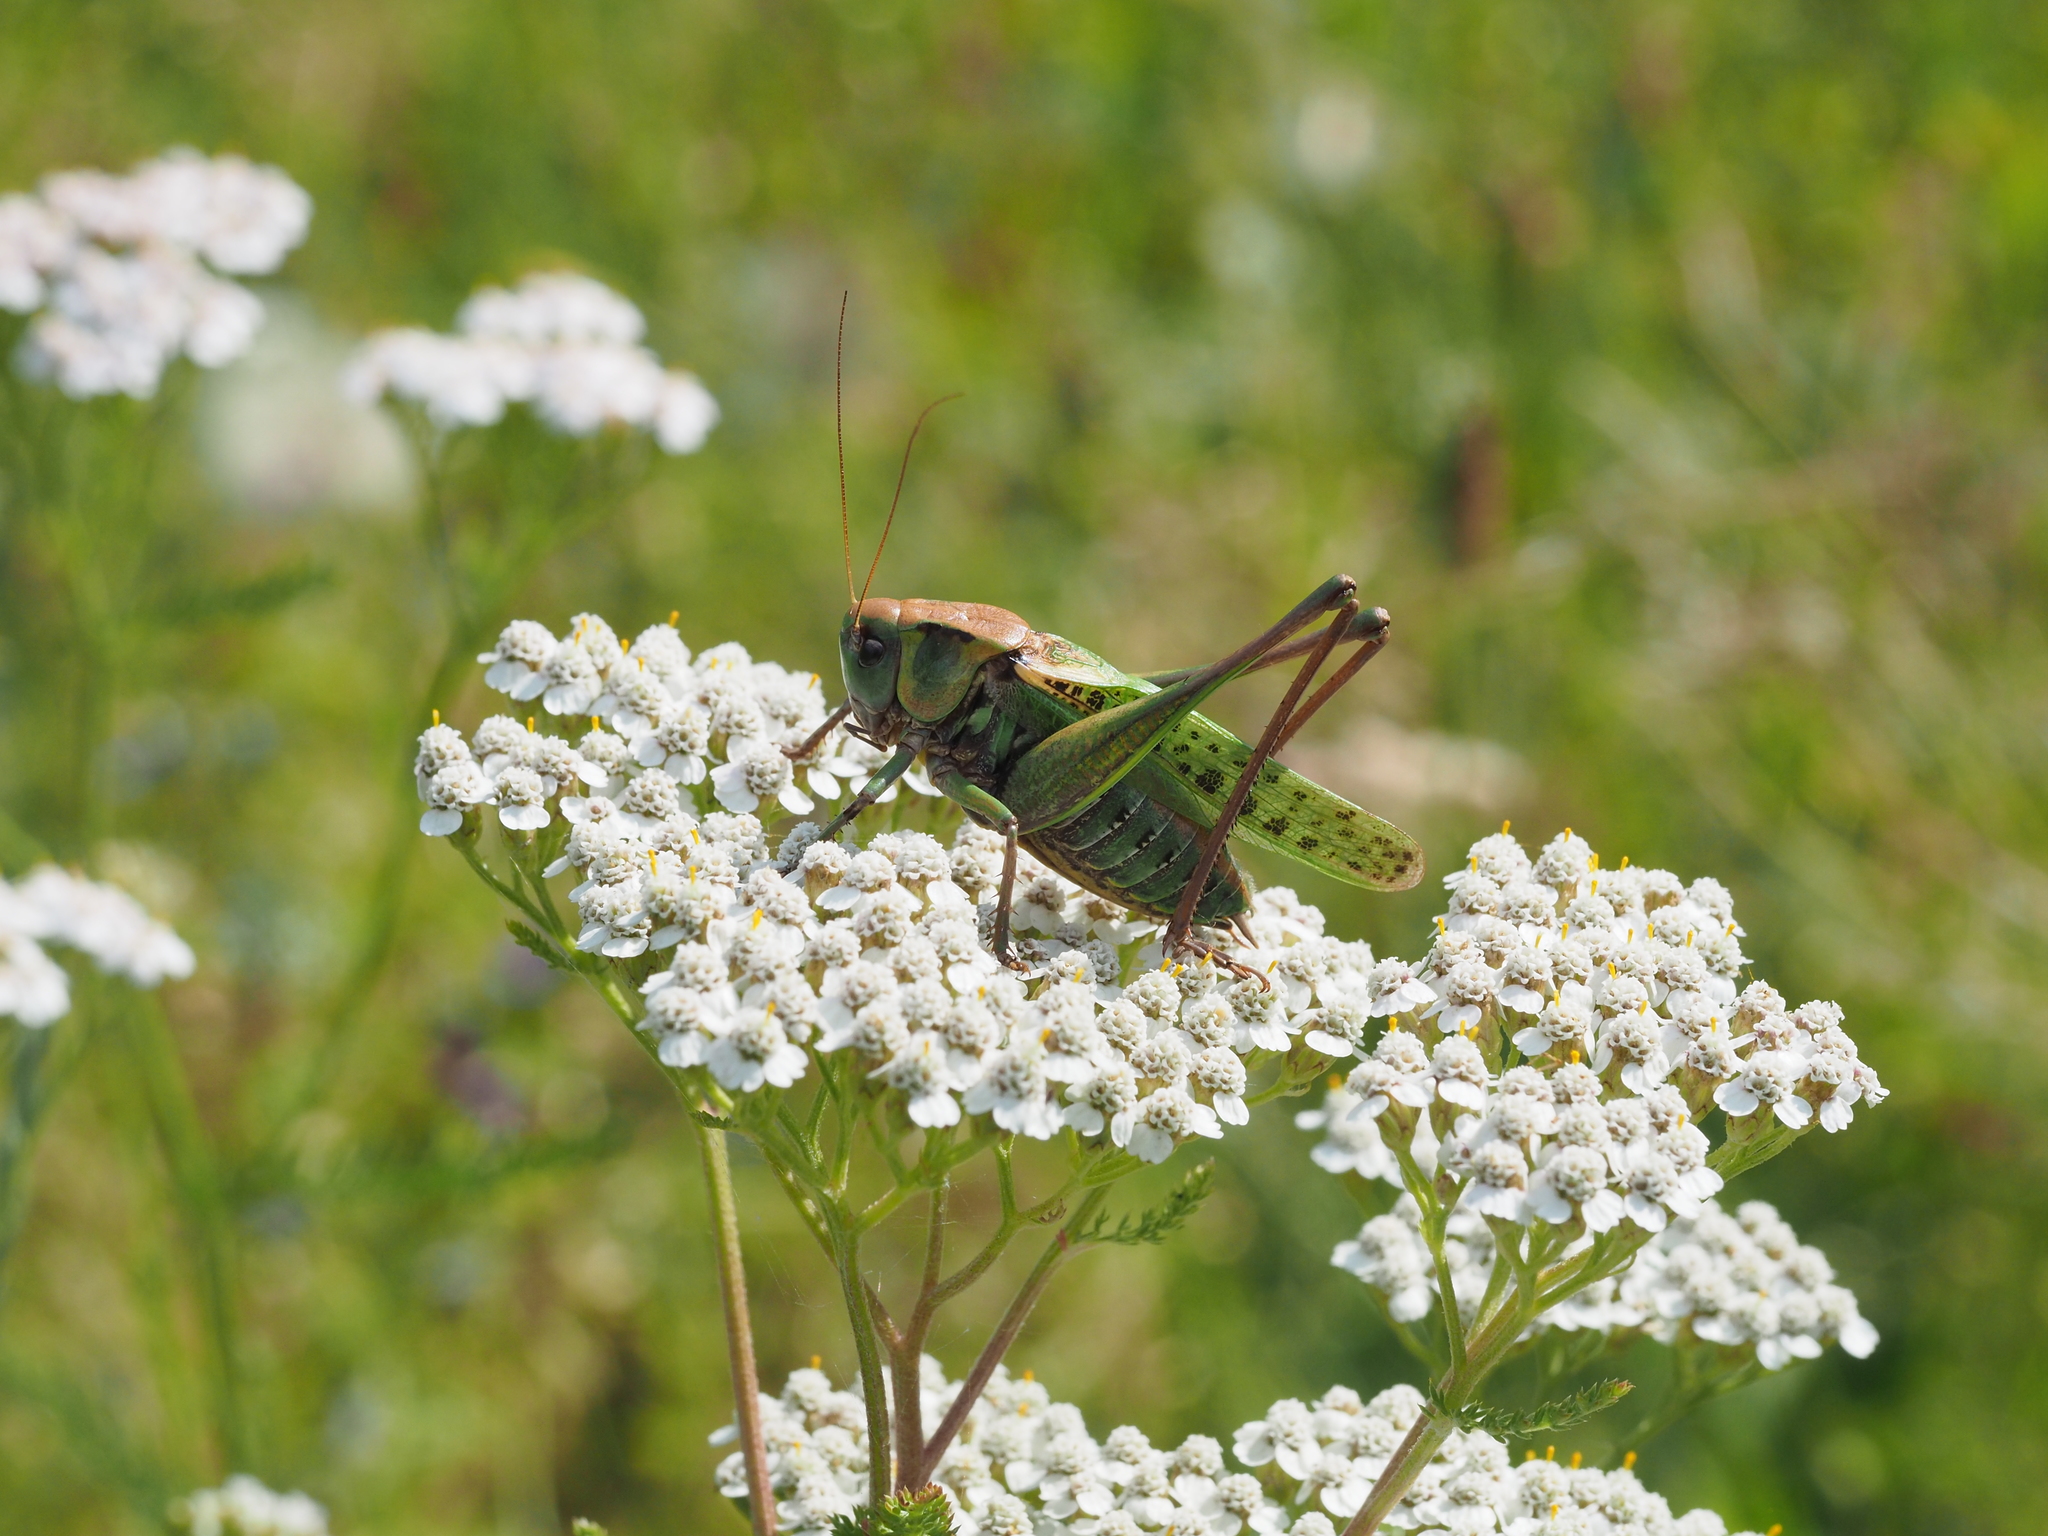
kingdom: Animalia
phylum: Arthropoda
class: Insecta
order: Orthoptera
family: Tettigoniidae
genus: Decticus
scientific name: Decticus verrucivorus
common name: Wart-biter
